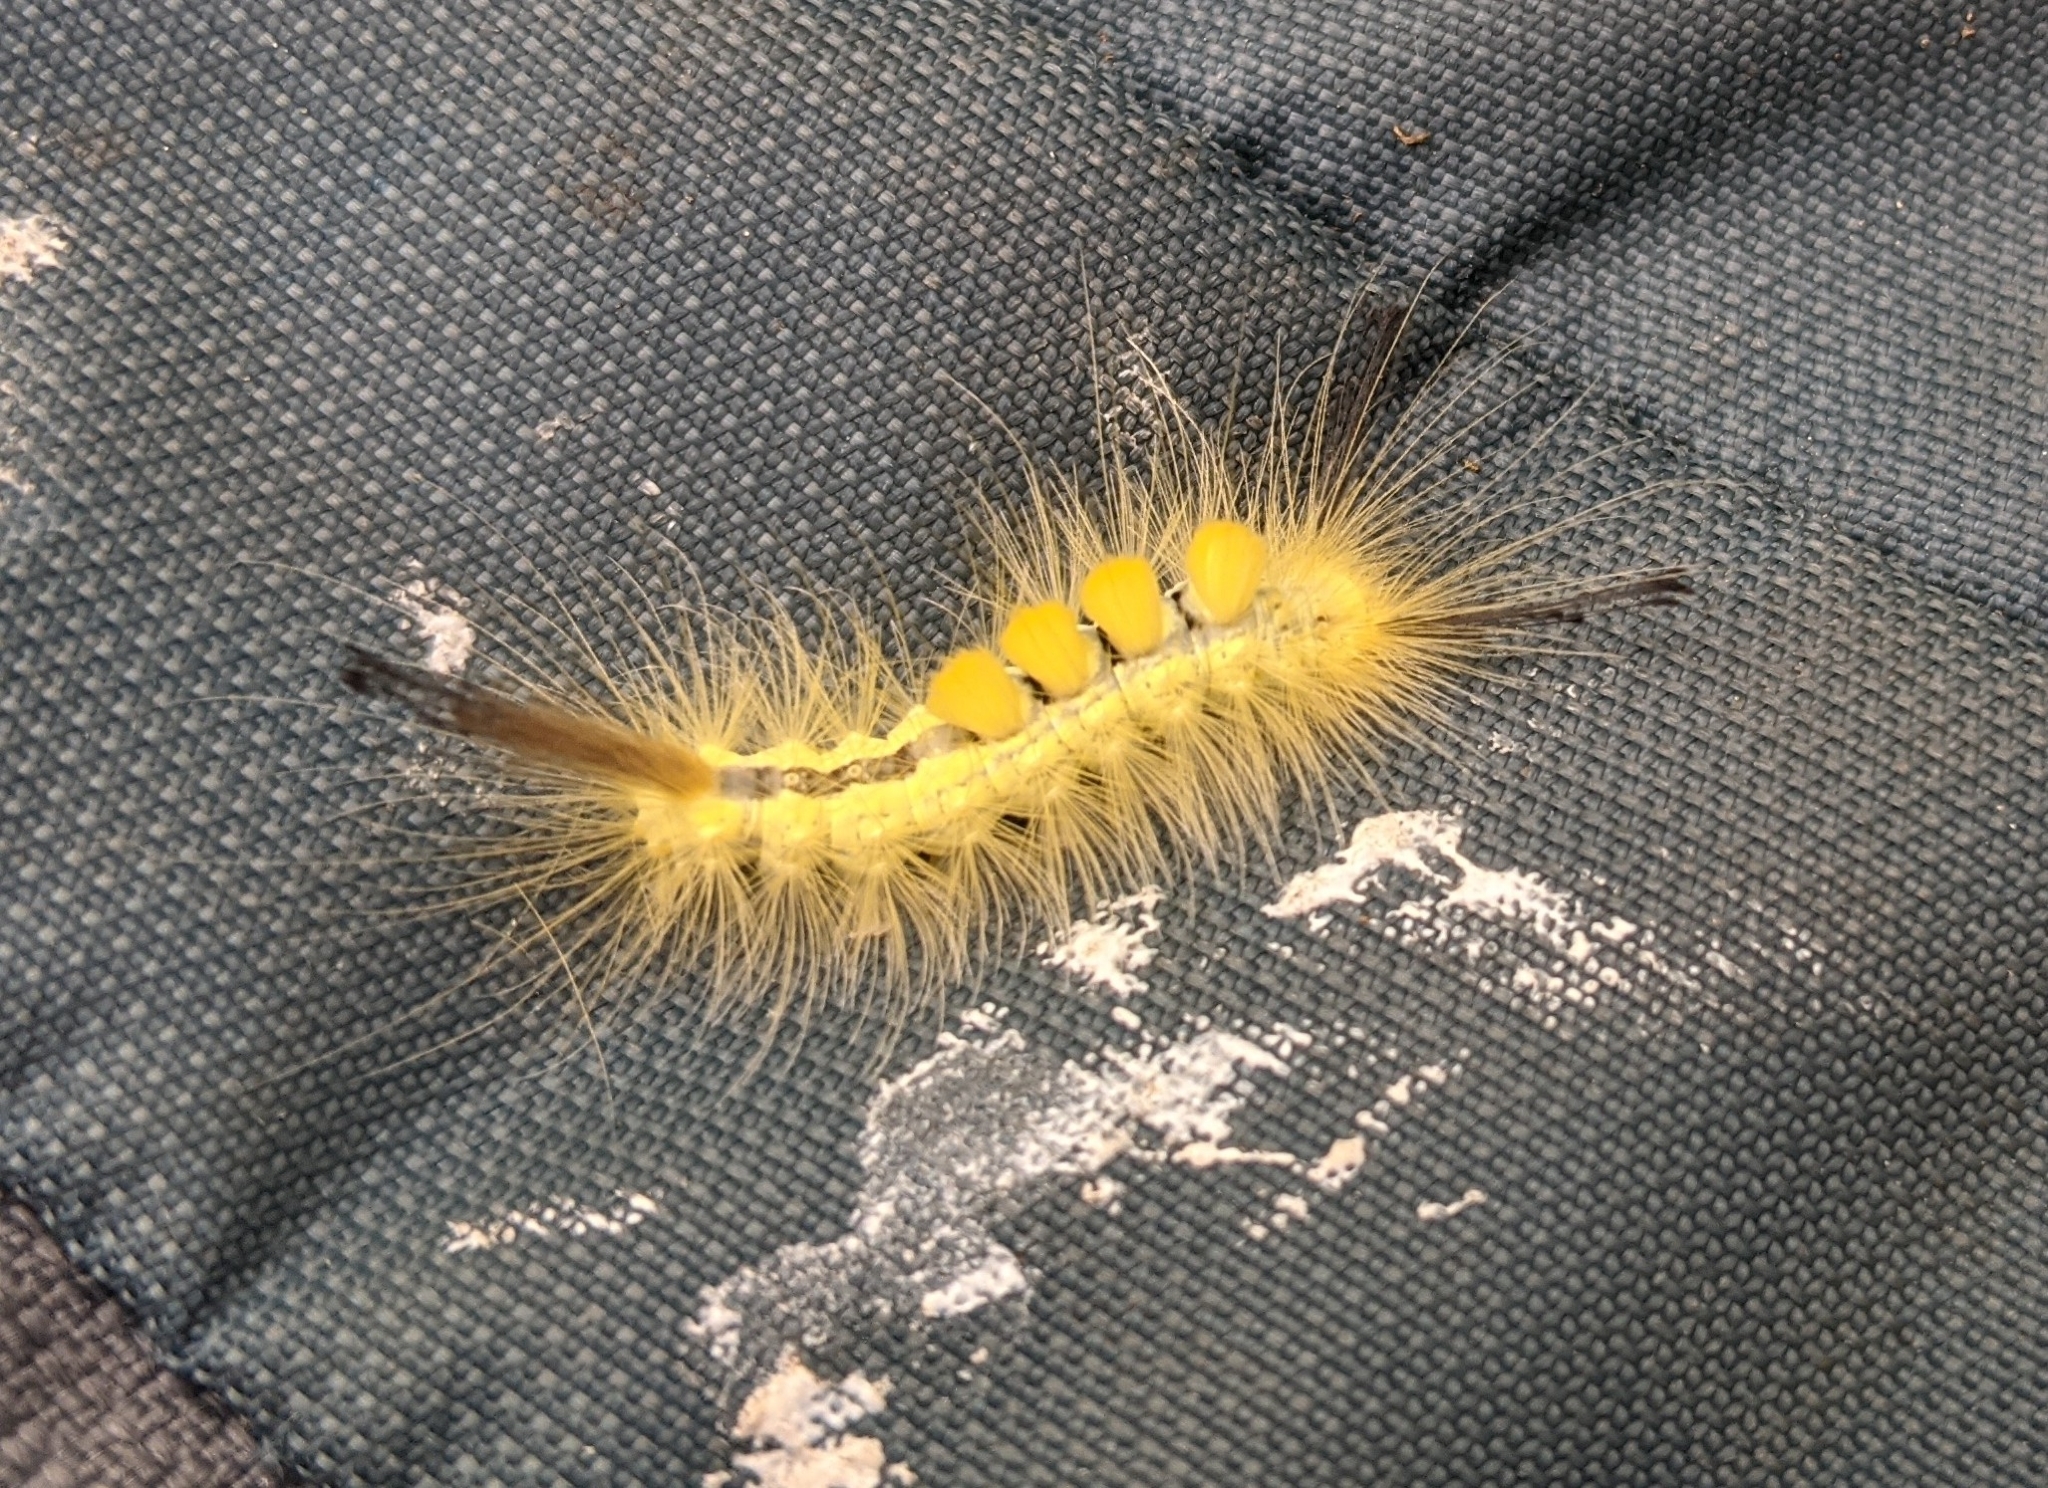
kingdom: Animalia
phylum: Arthropoda
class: Insecta
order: Lepidoptera
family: Erebidae
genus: Orgyia
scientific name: Orgyia definita
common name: Definite tussock moth
